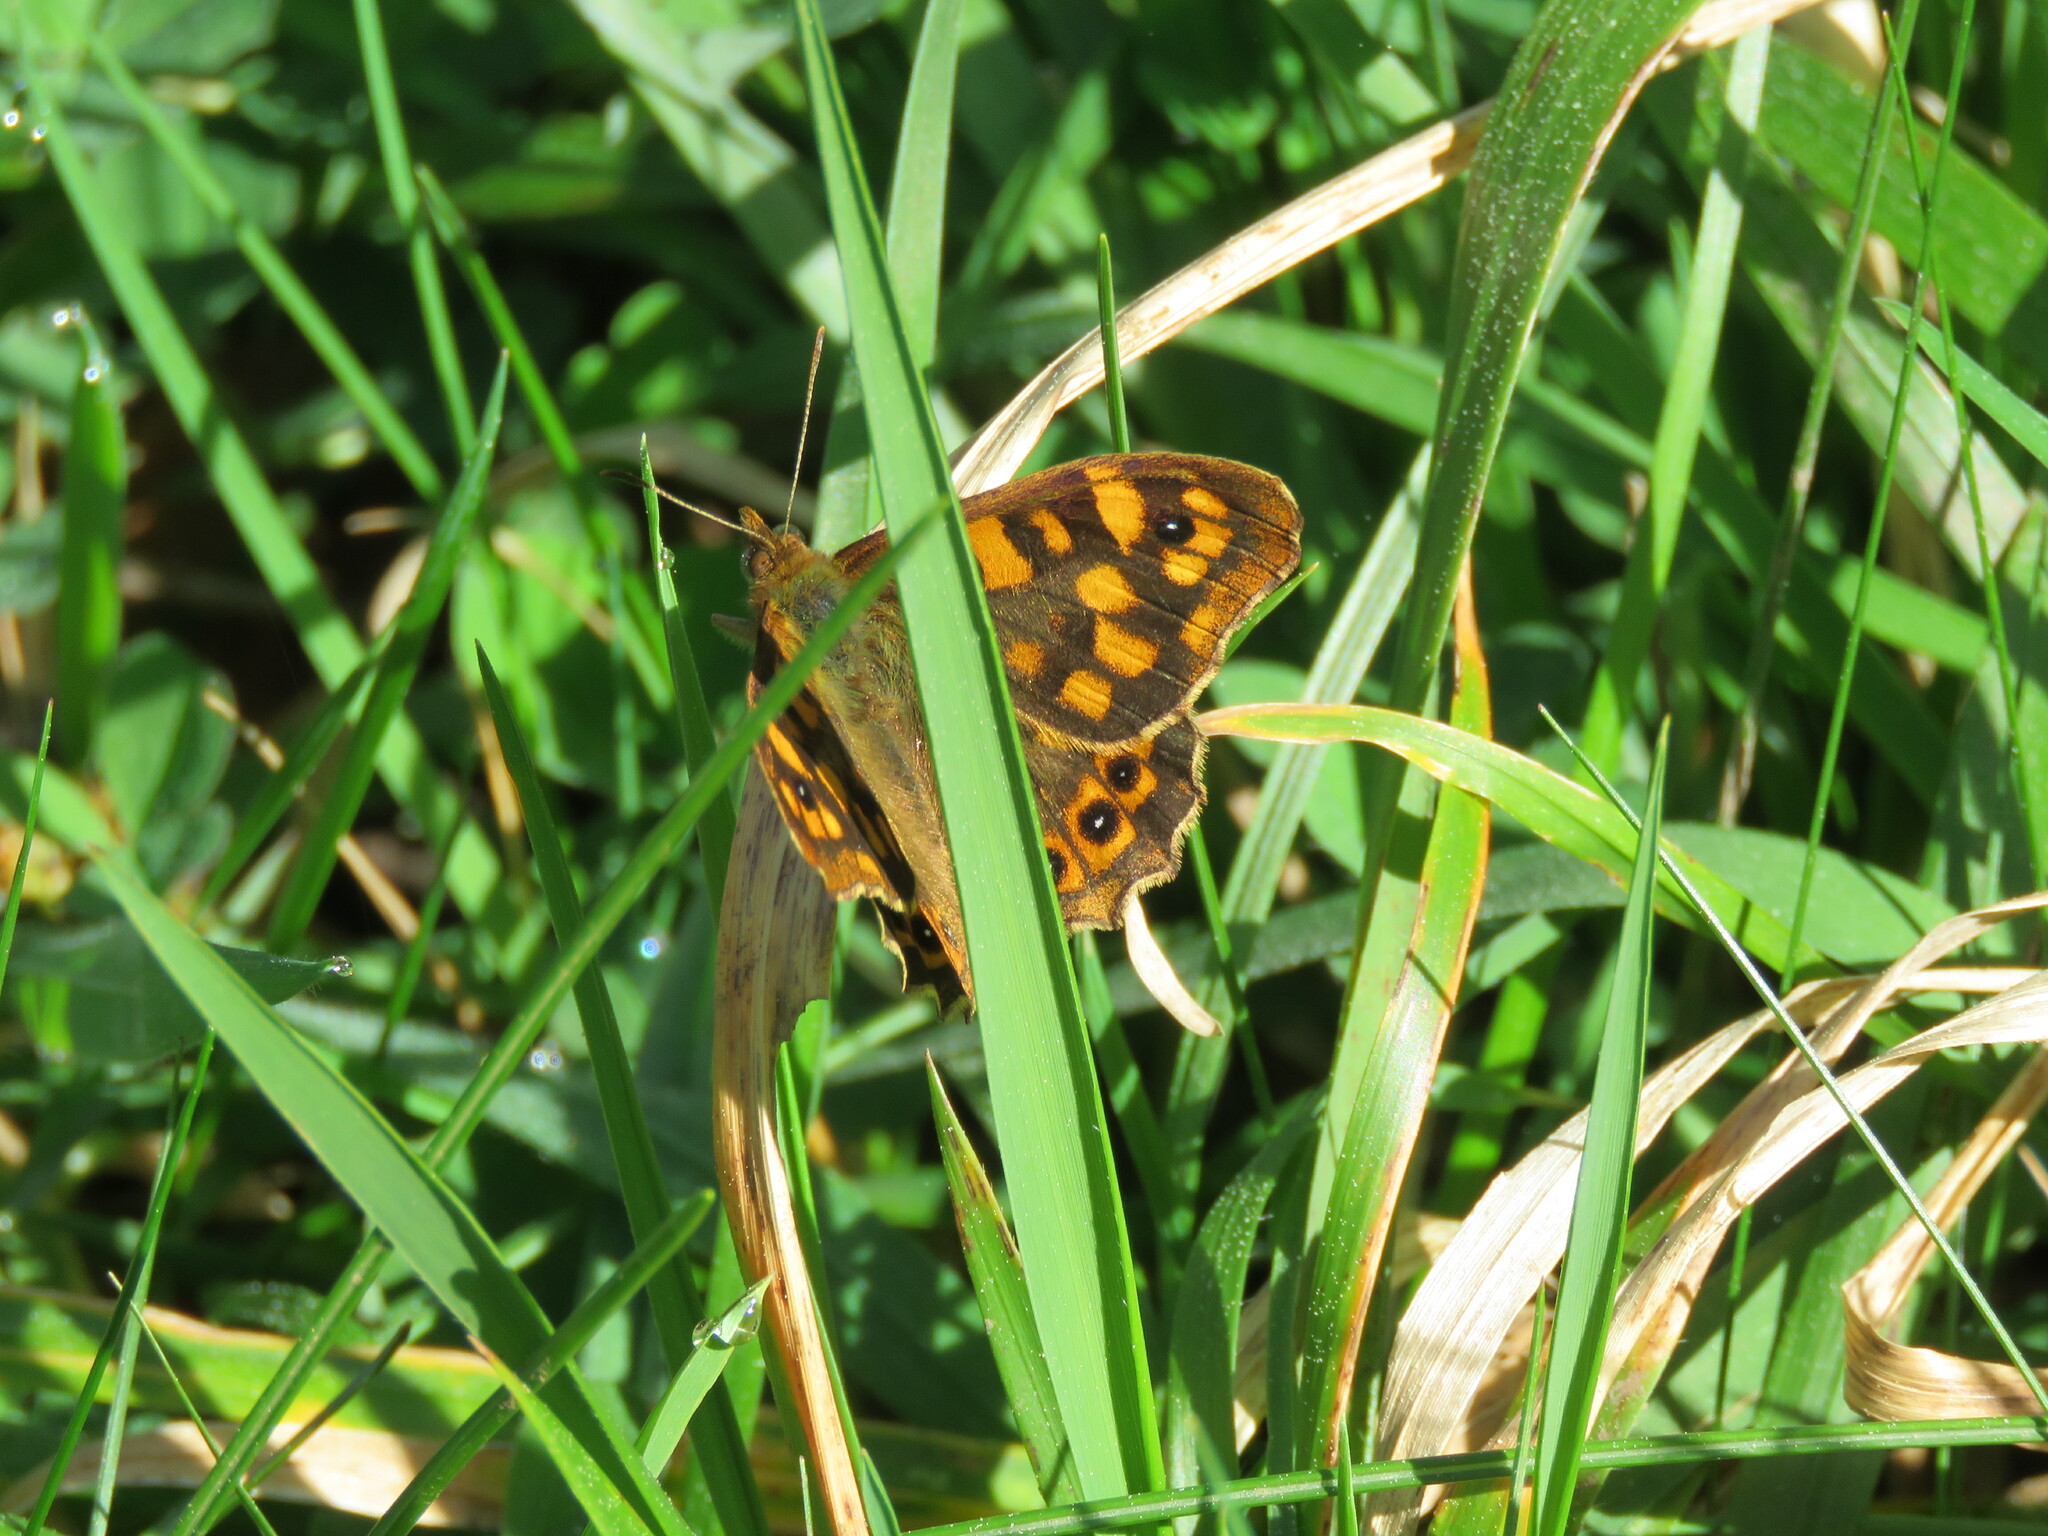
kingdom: Animalia
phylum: Arthropoda
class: Insecta
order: Lepidoptera
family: Nymphalidae
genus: Pararge
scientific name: Pararge aegeria
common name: Speckled wood
